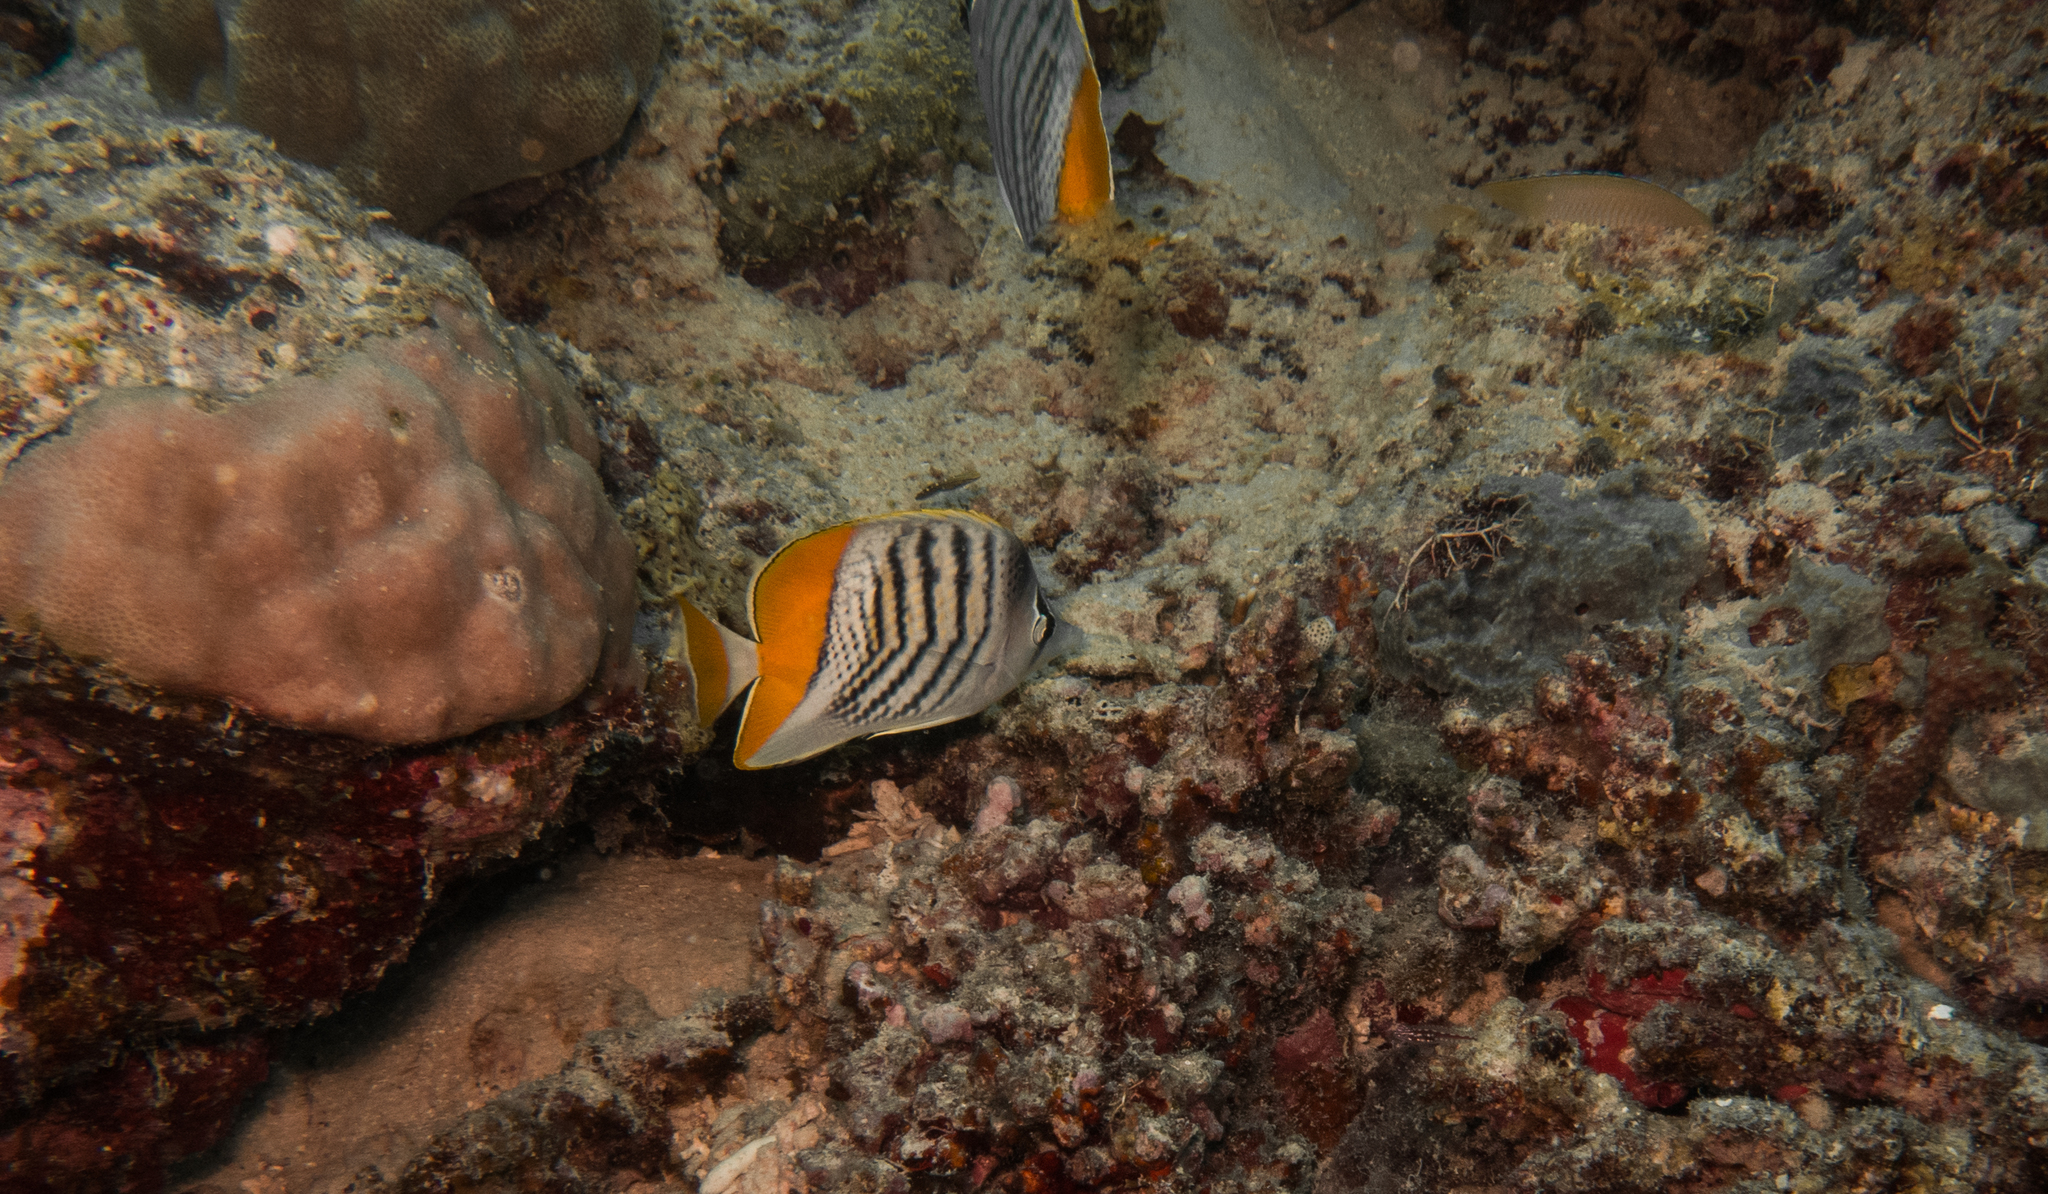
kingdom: Animalia
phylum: Chordata
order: Perciformes
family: Chaetodontidae
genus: Chaetodon
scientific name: Chaetodon mertensii
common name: Merten's butterflyfish
